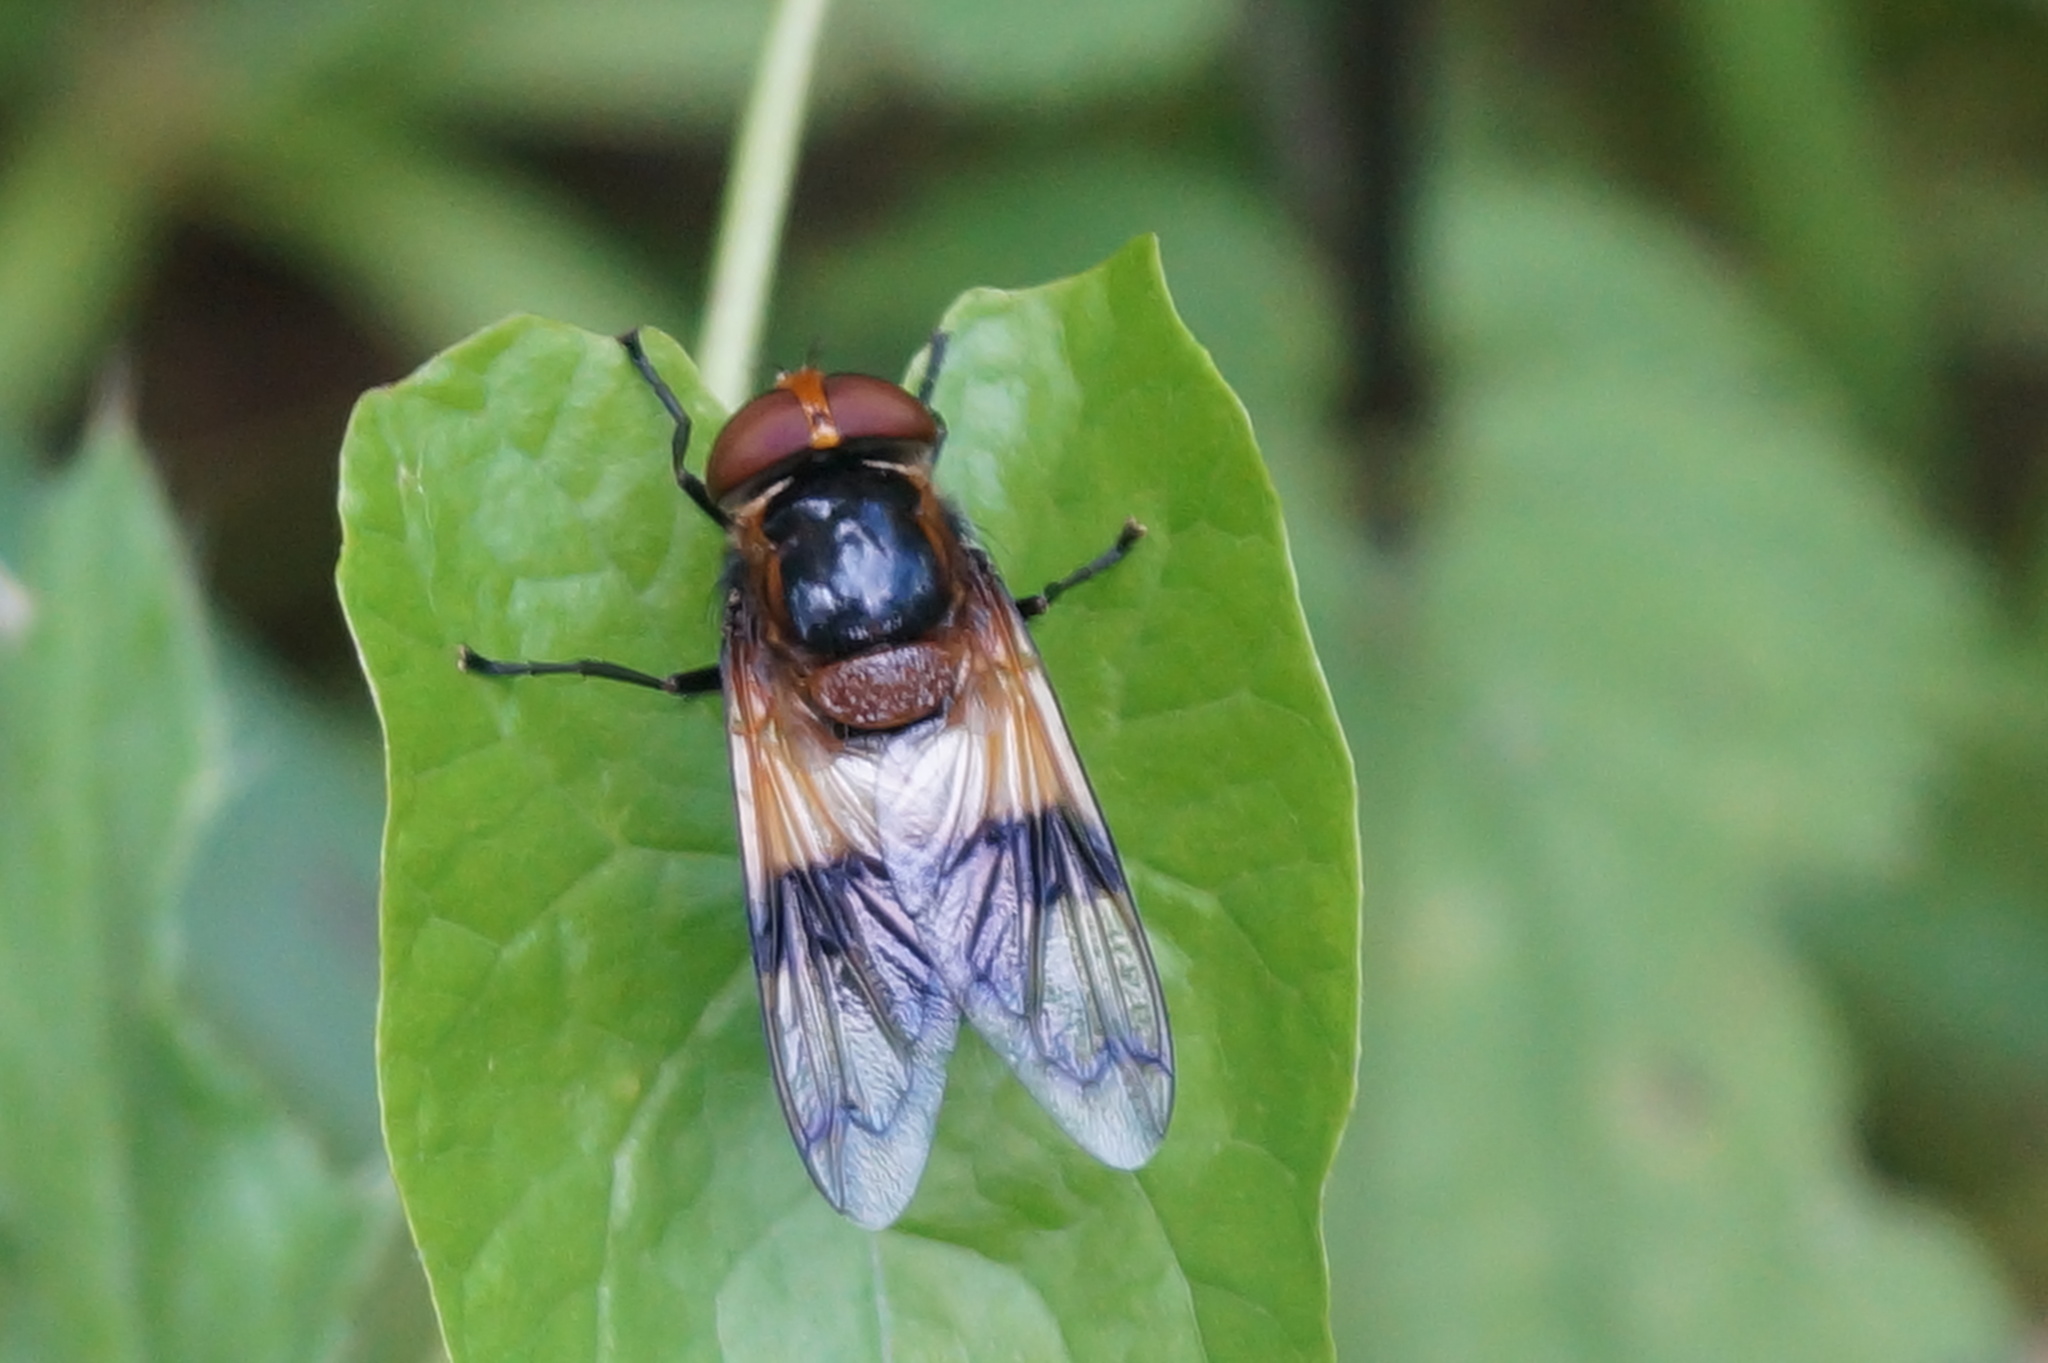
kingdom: Animalia
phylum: Arthropoda
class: Insecta
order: Diptera
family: Syrphidae
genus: Volucella
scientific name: Volucella pellucens
